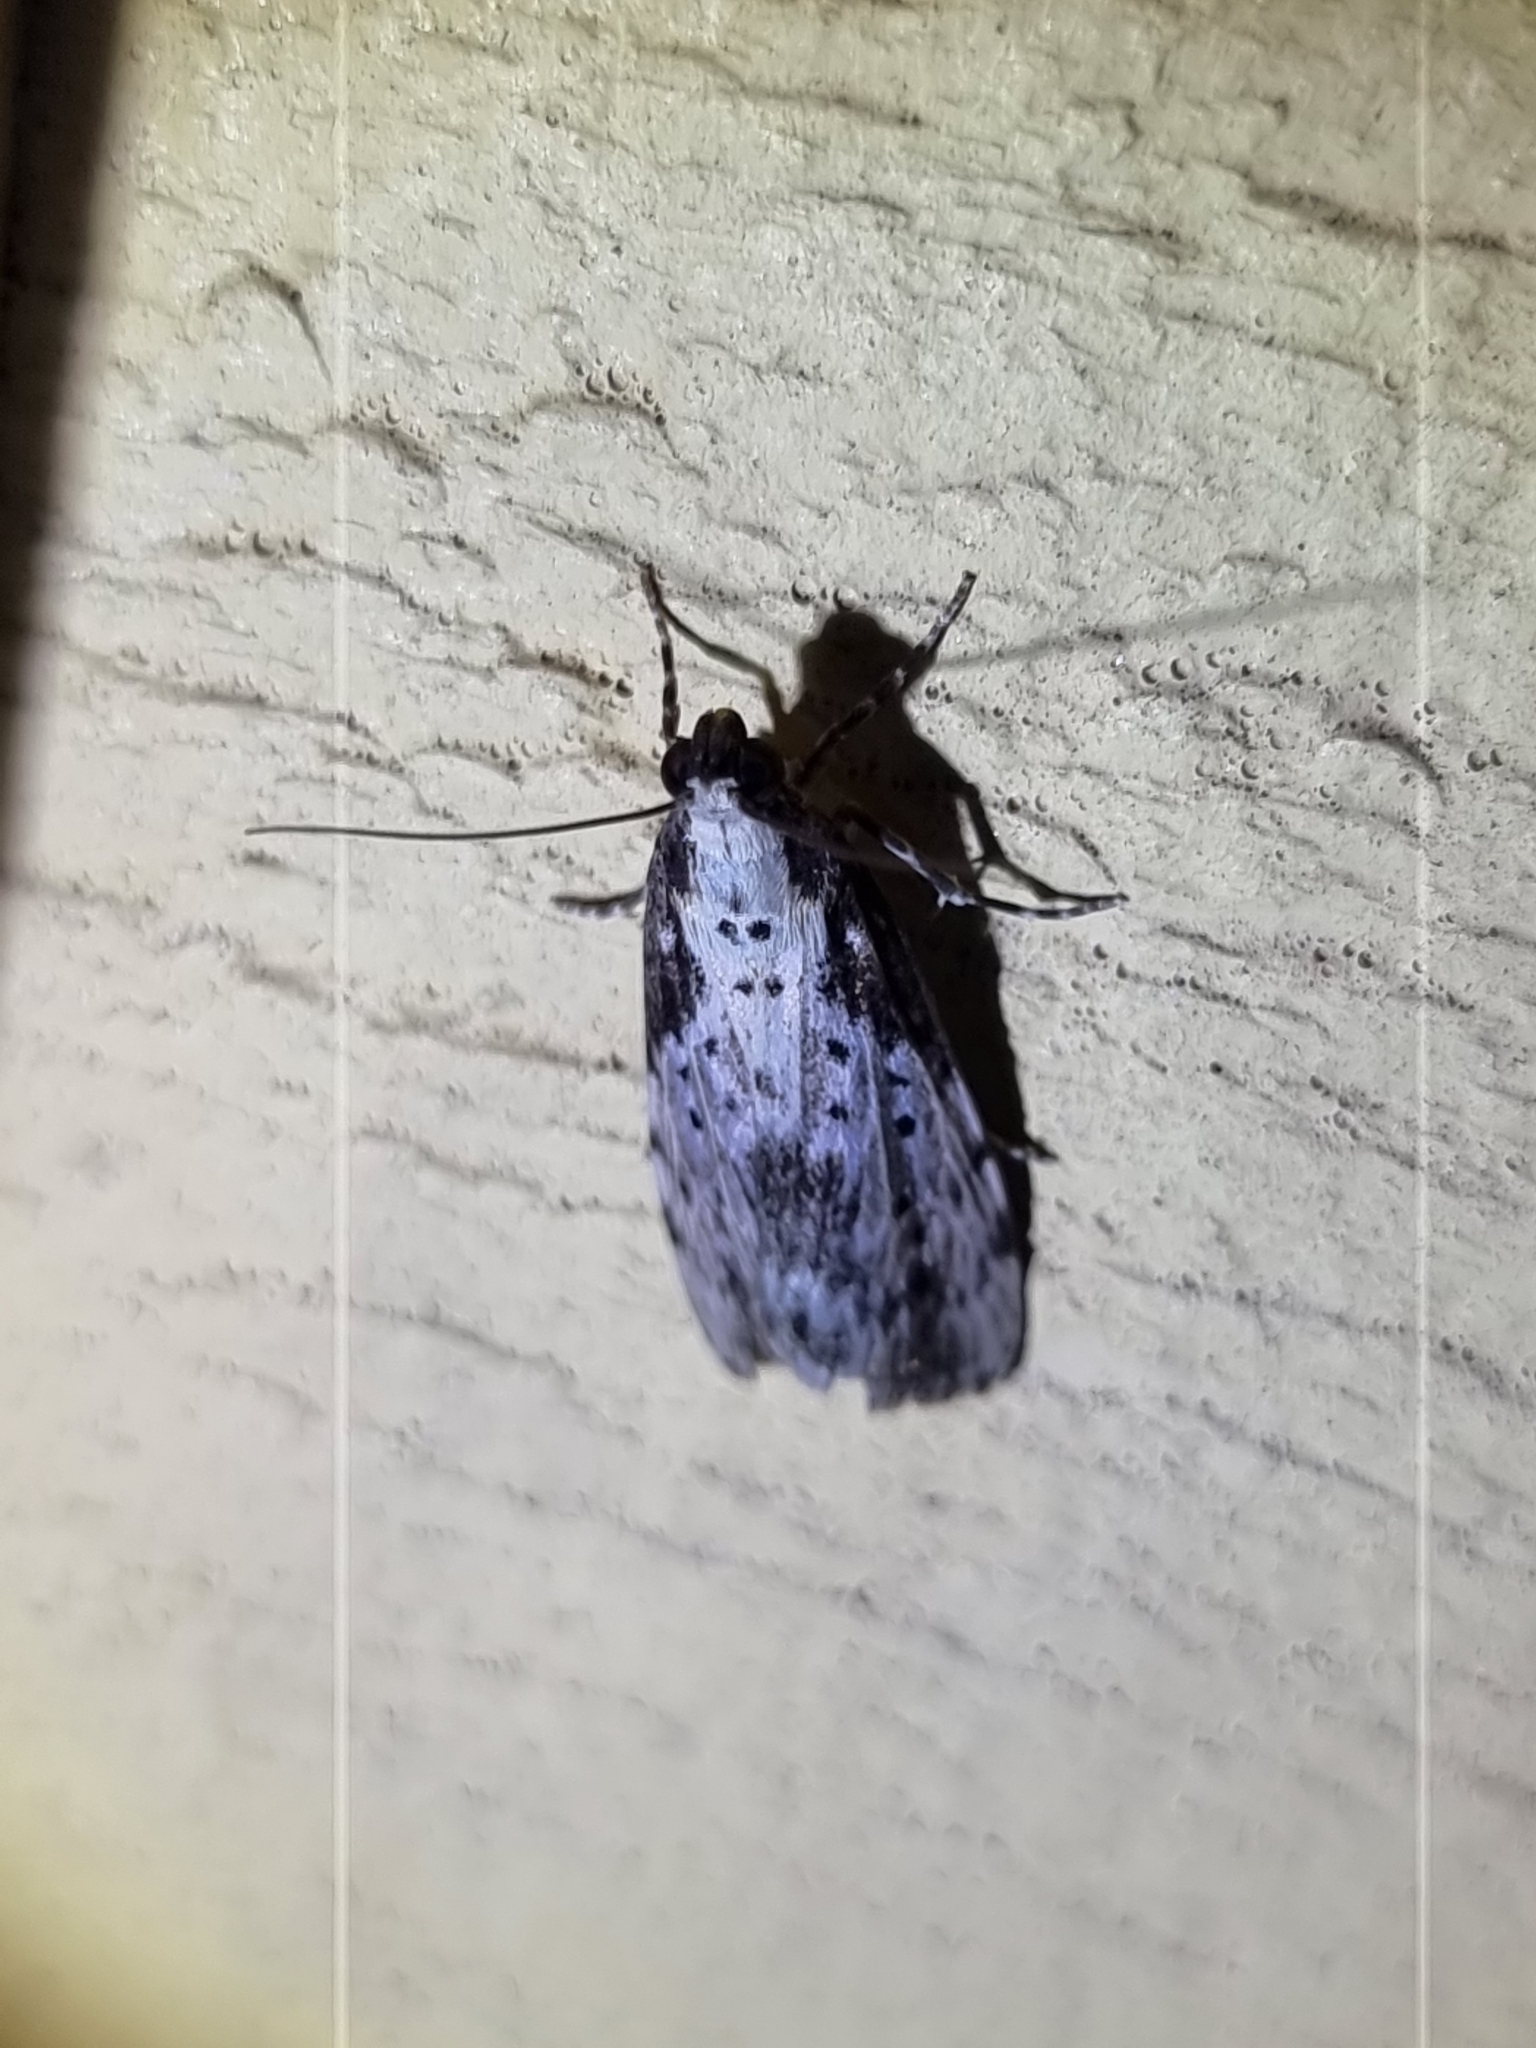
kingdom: Animalia
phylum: Arthropoda
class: Insecta
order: Lepidoptera
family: Erebidae
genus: Digama
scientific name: Digama Sommeria marmorea
